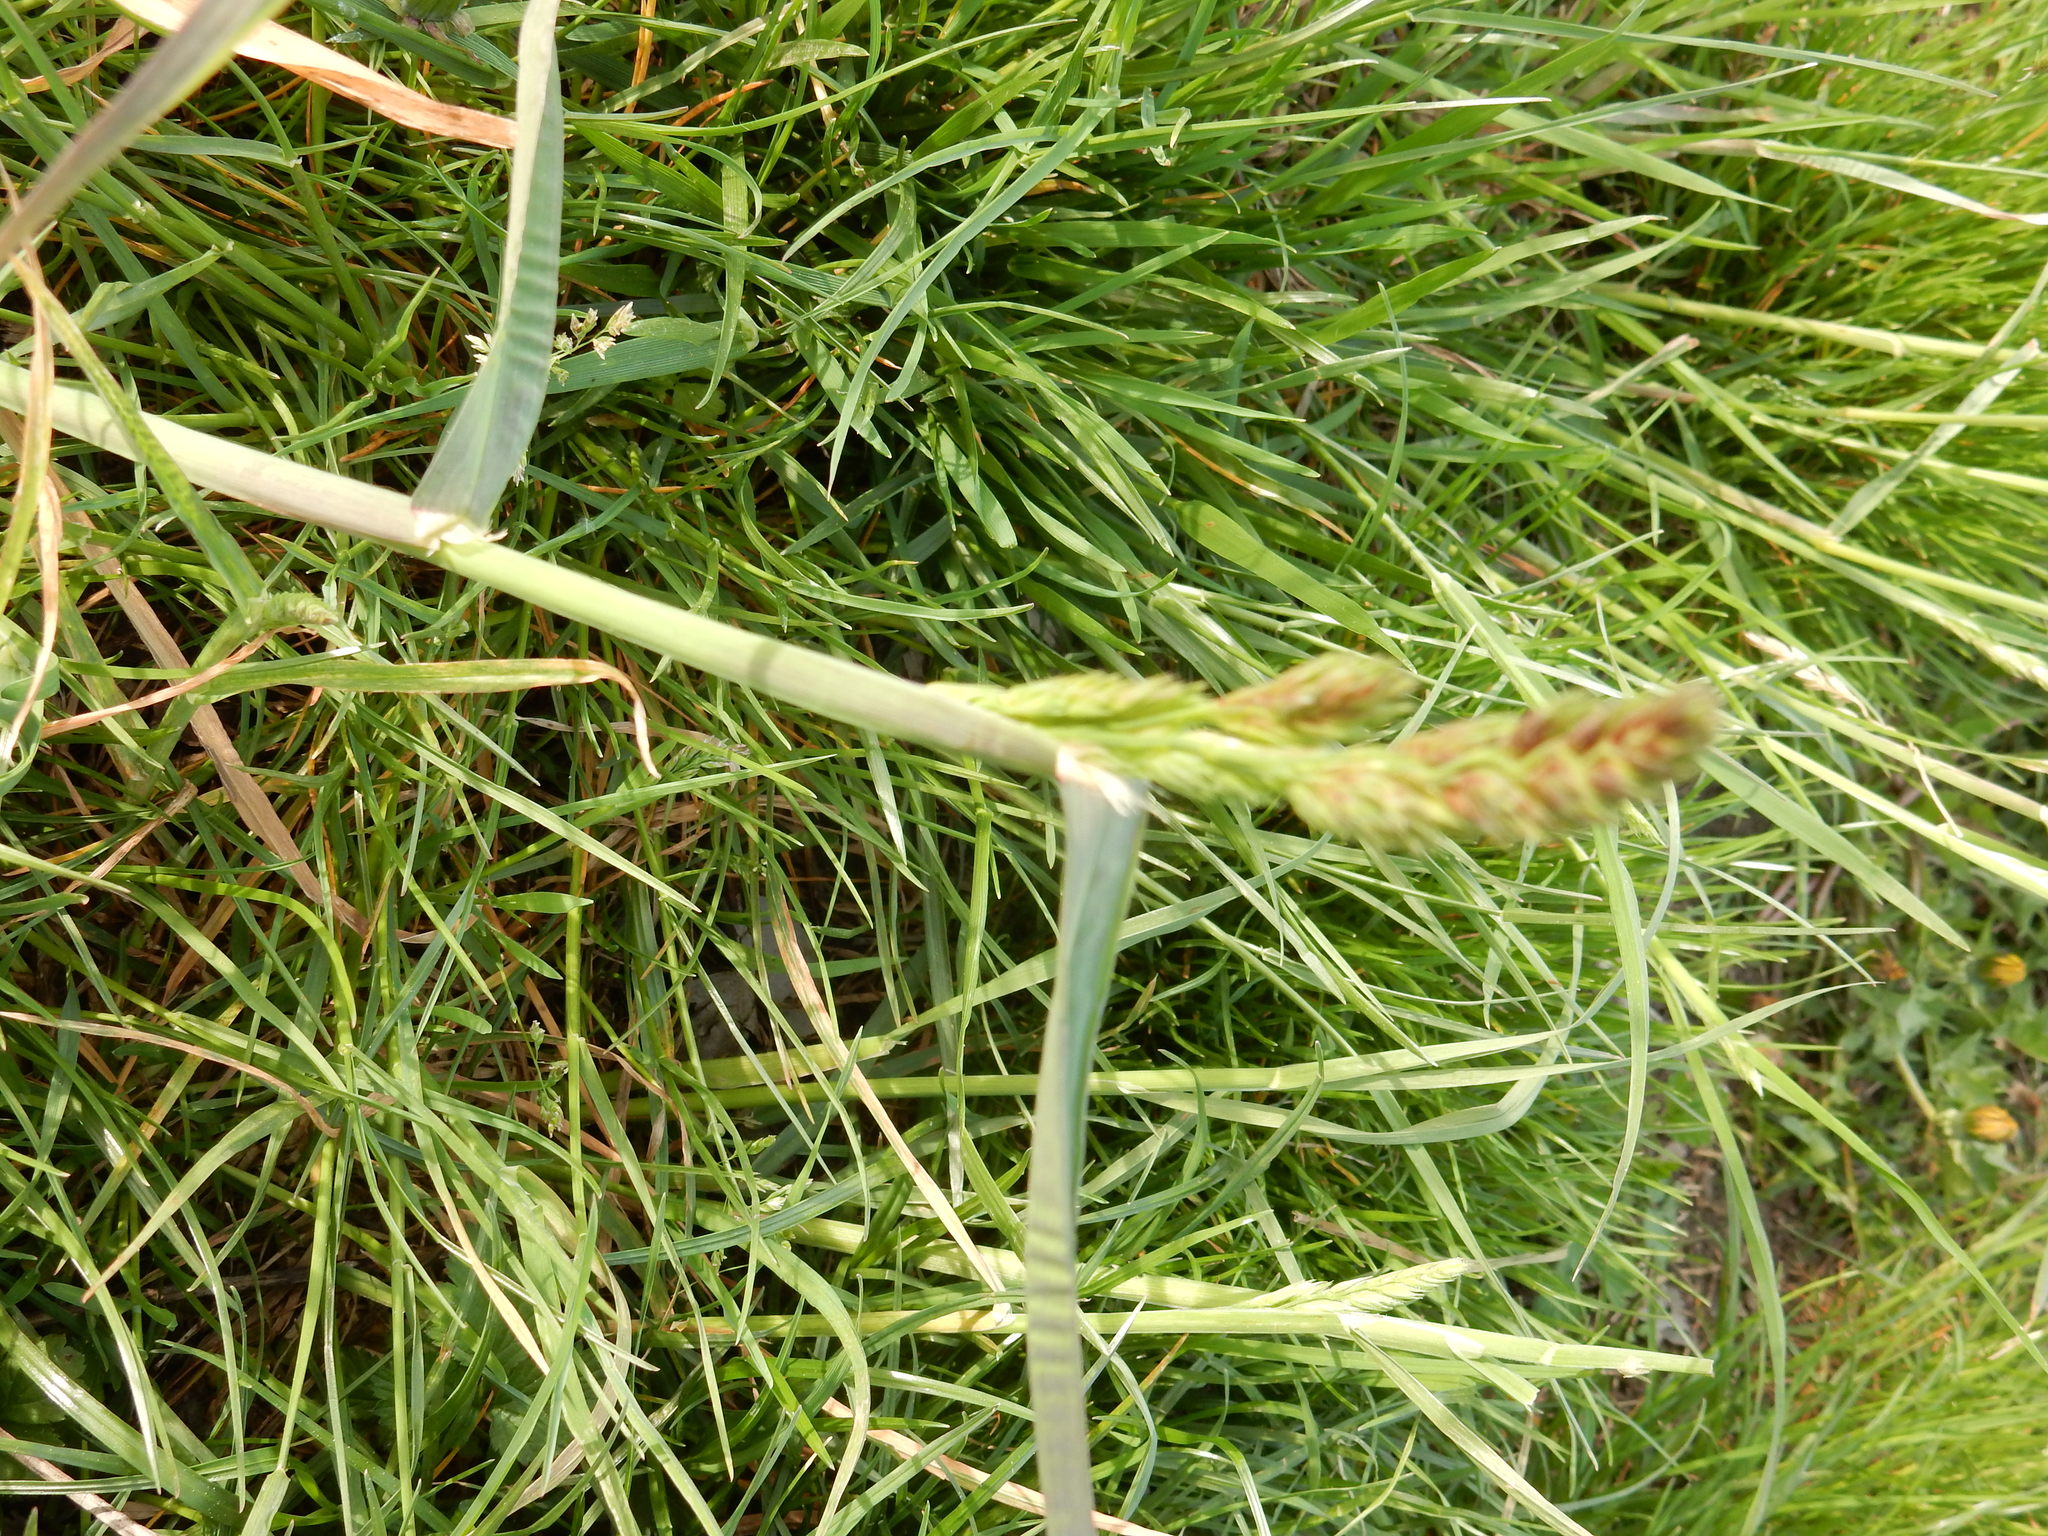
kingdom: Plantae
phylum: Tracheophyta
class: Liliopsida
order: Poales
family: Poaceae
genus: Dactylis
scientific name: Dactylis glomerata
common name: Orchardgrass
